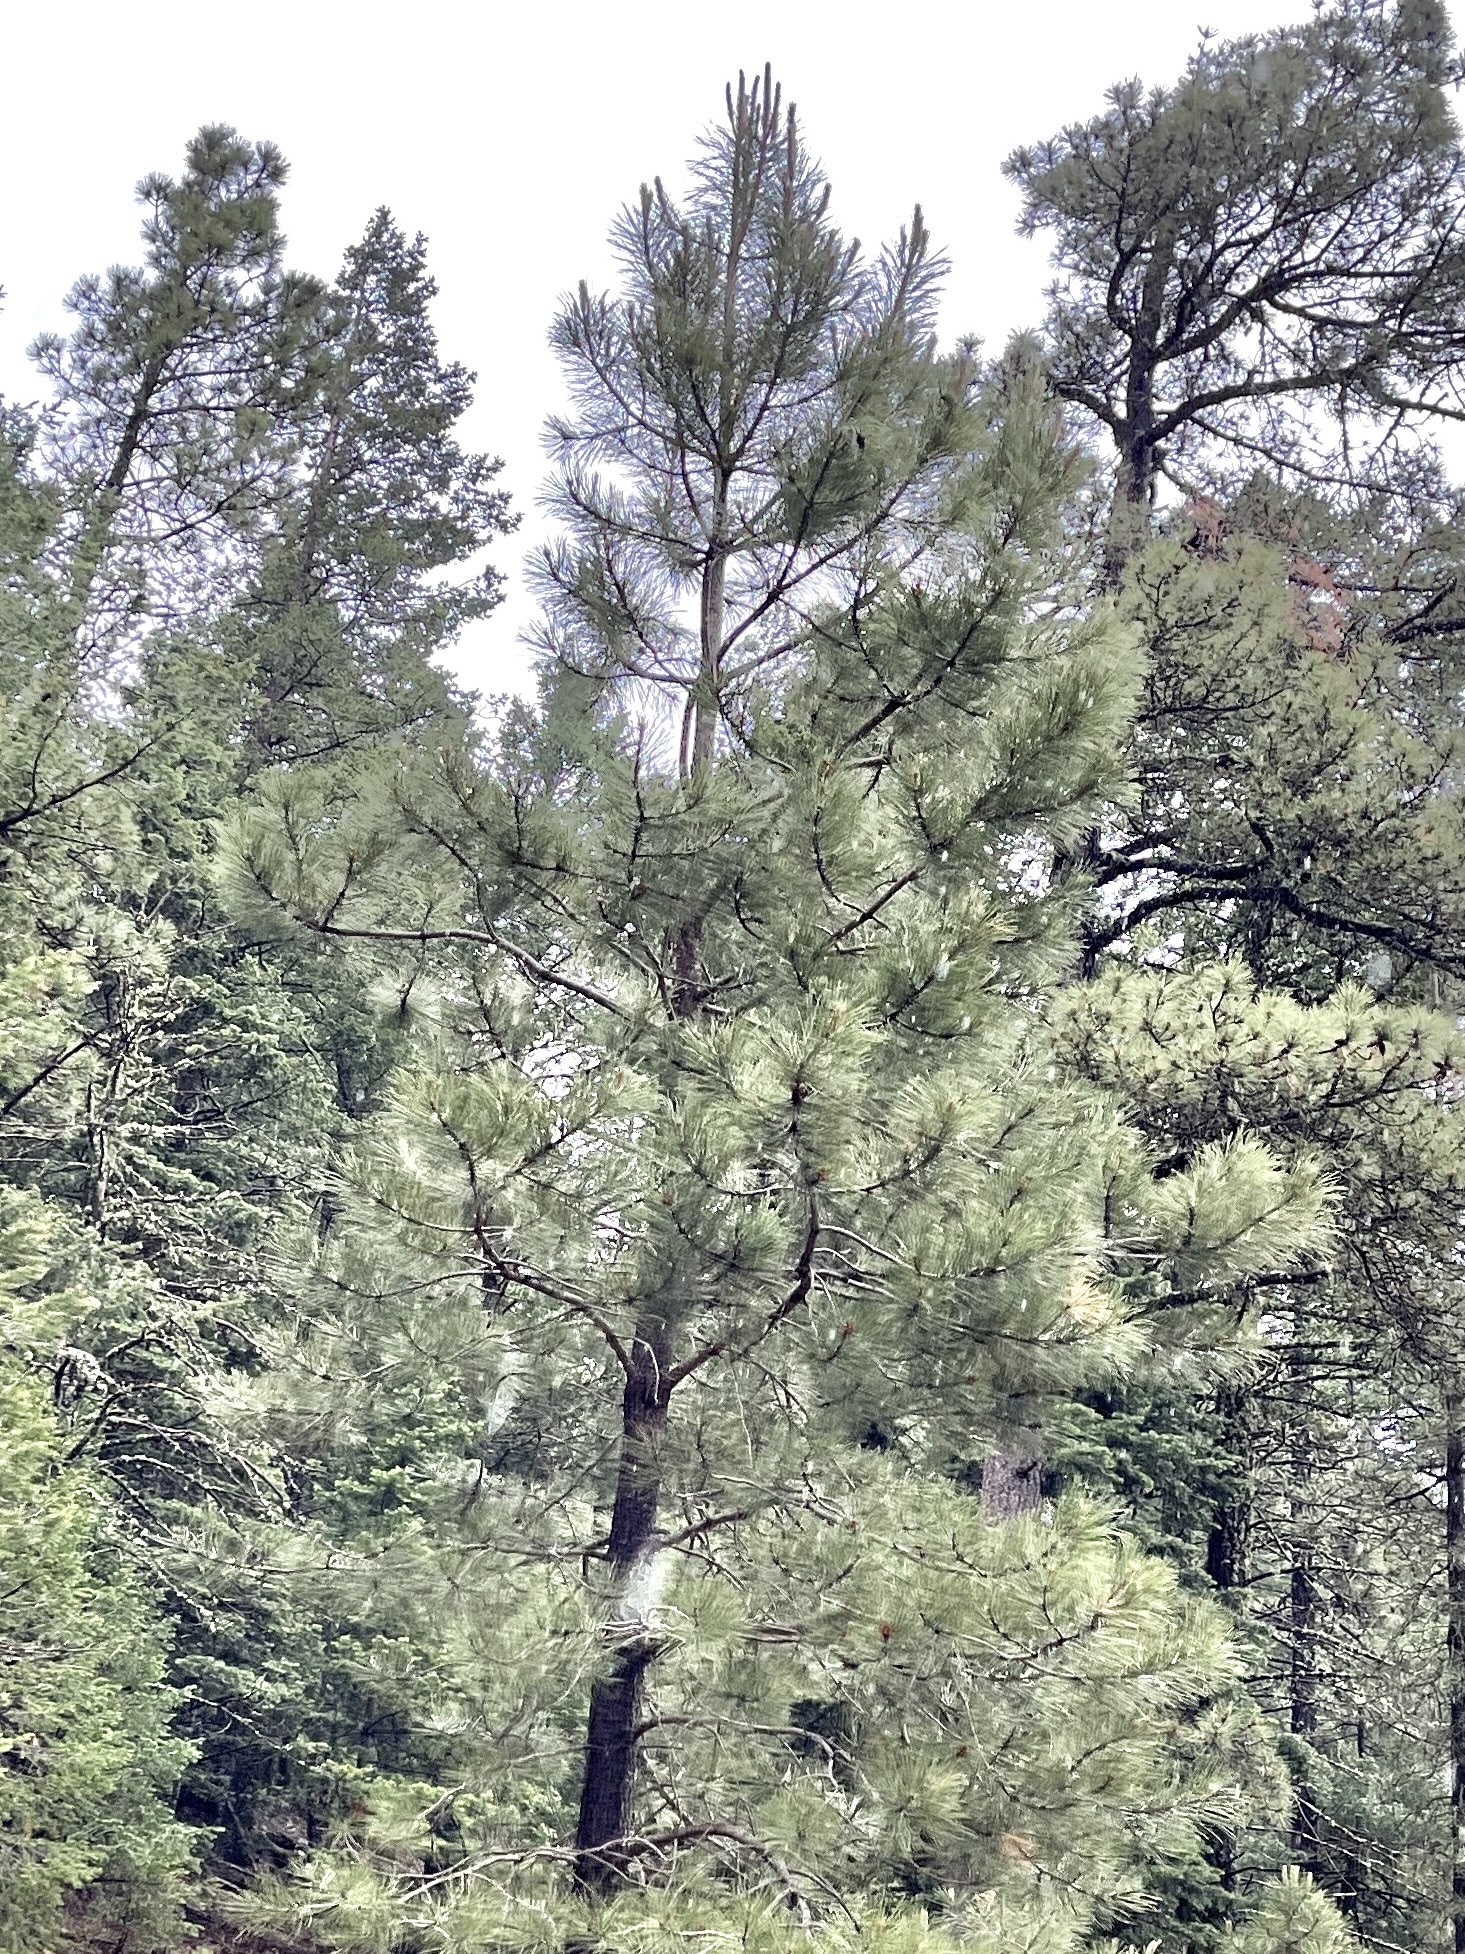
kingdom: Plantae
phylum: Tracheophyta
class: Pinopsida
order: Pinales
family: Pinaceae
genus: Pinus
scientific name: Pinus ponderosa
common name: Western yellow-pine
